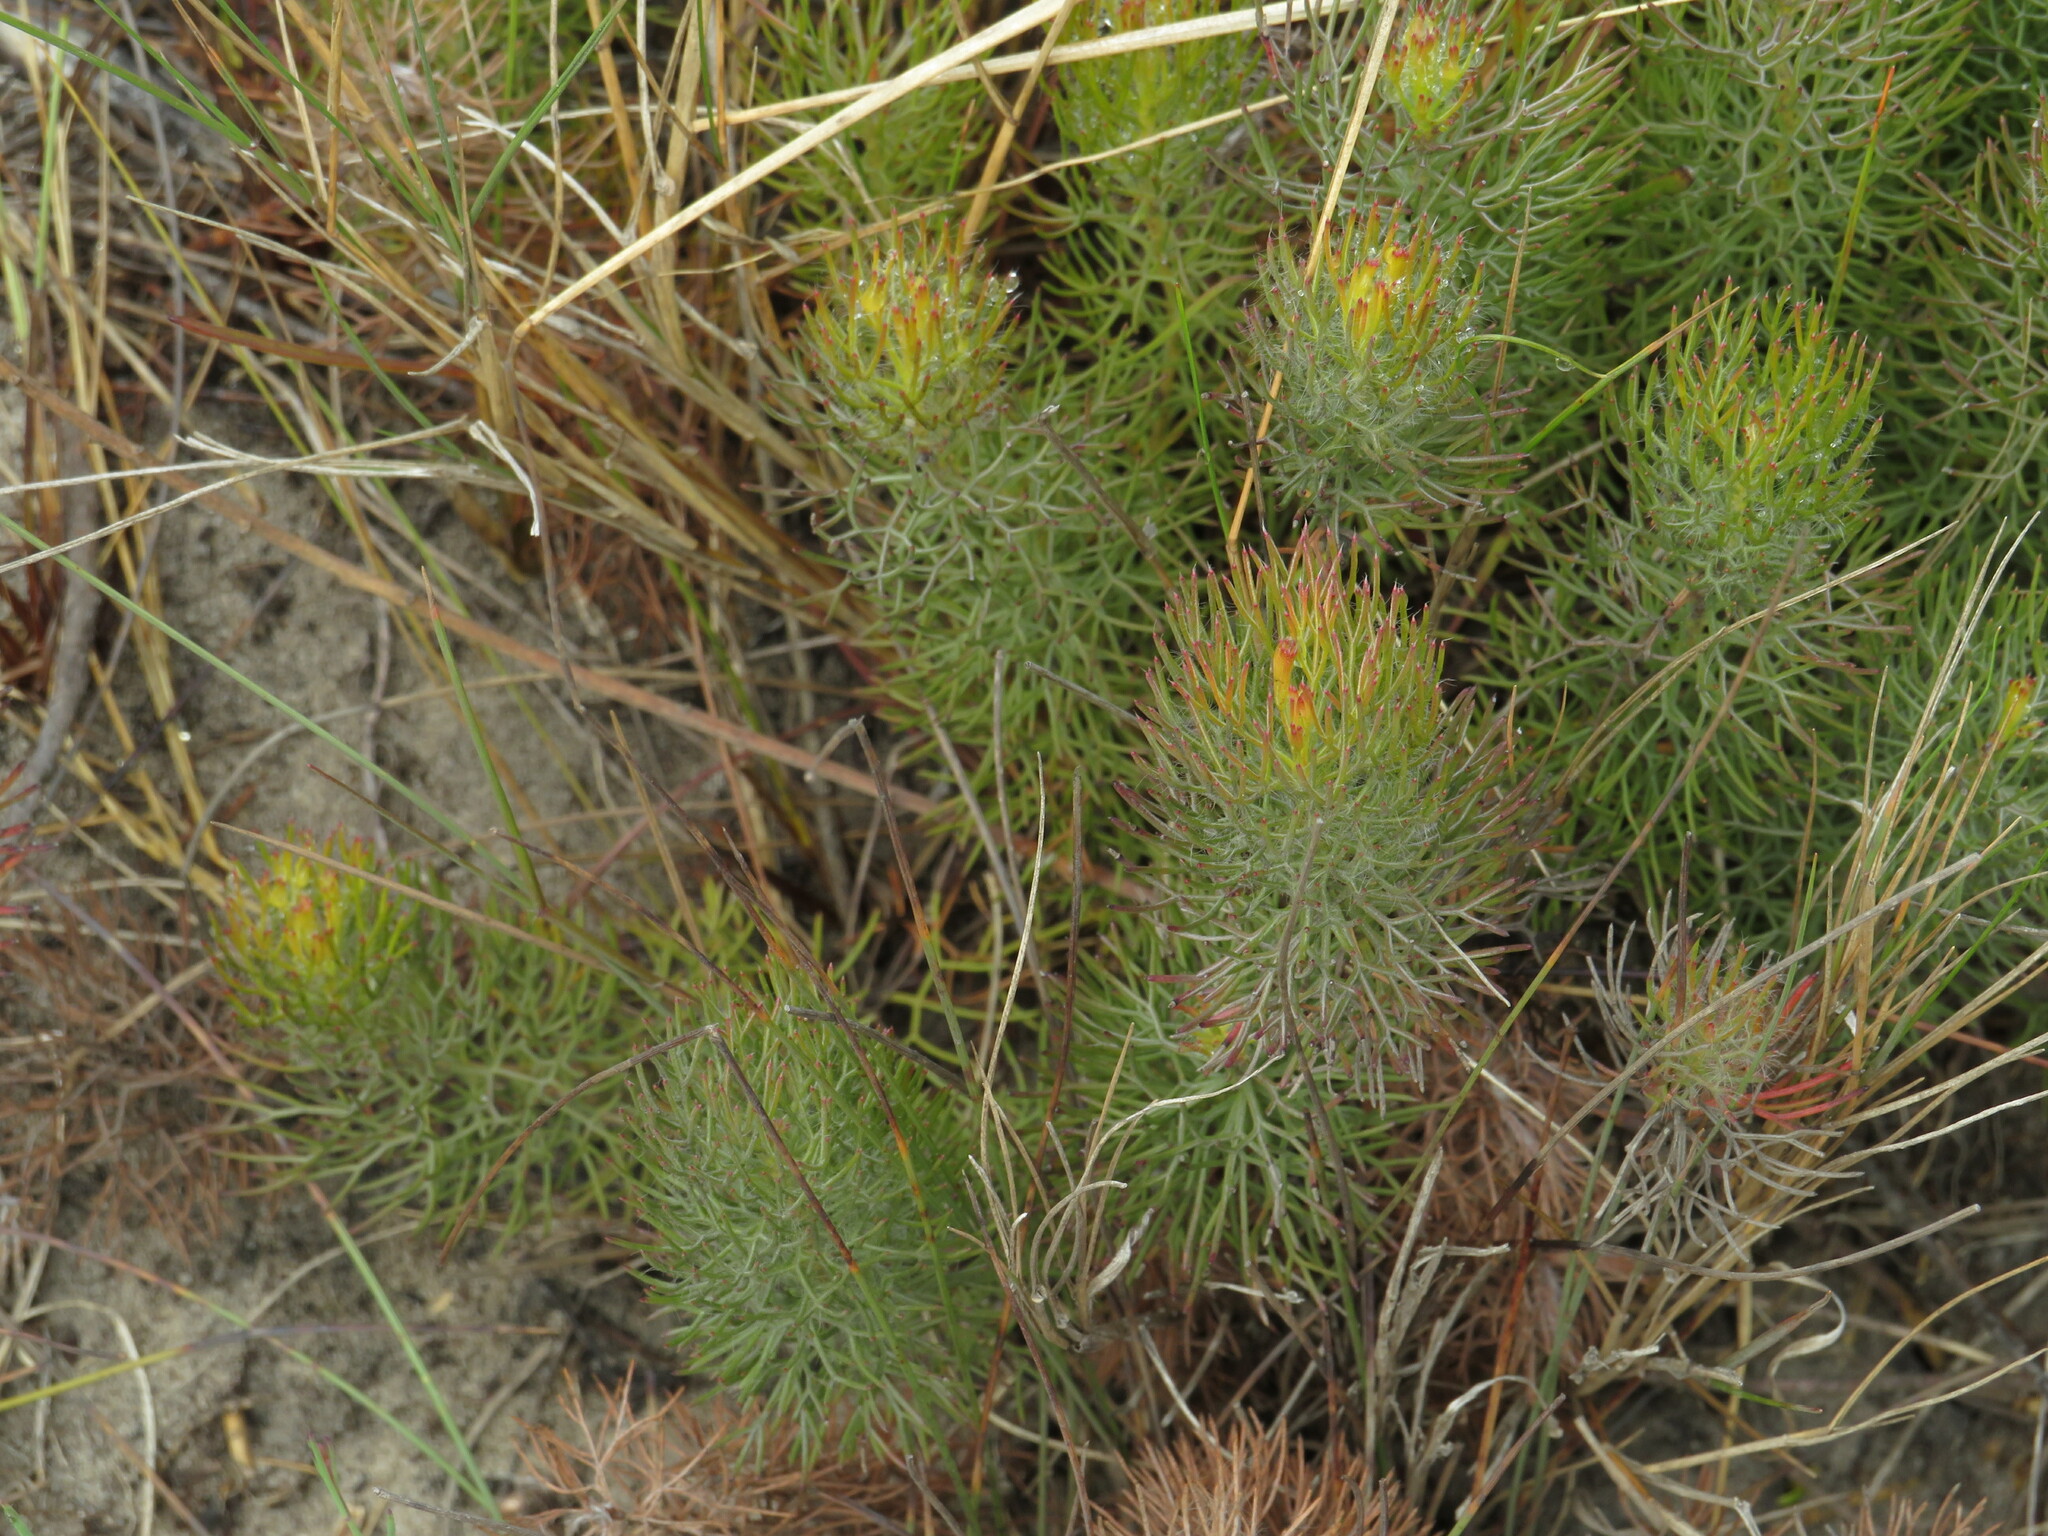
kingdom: Plantae
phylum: Tracheophyta
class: Magnoliopsida
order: Proteales
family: Proteaceae
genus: Serruria
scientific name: Serruria cyanoides
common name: Wynberg spiderhead
